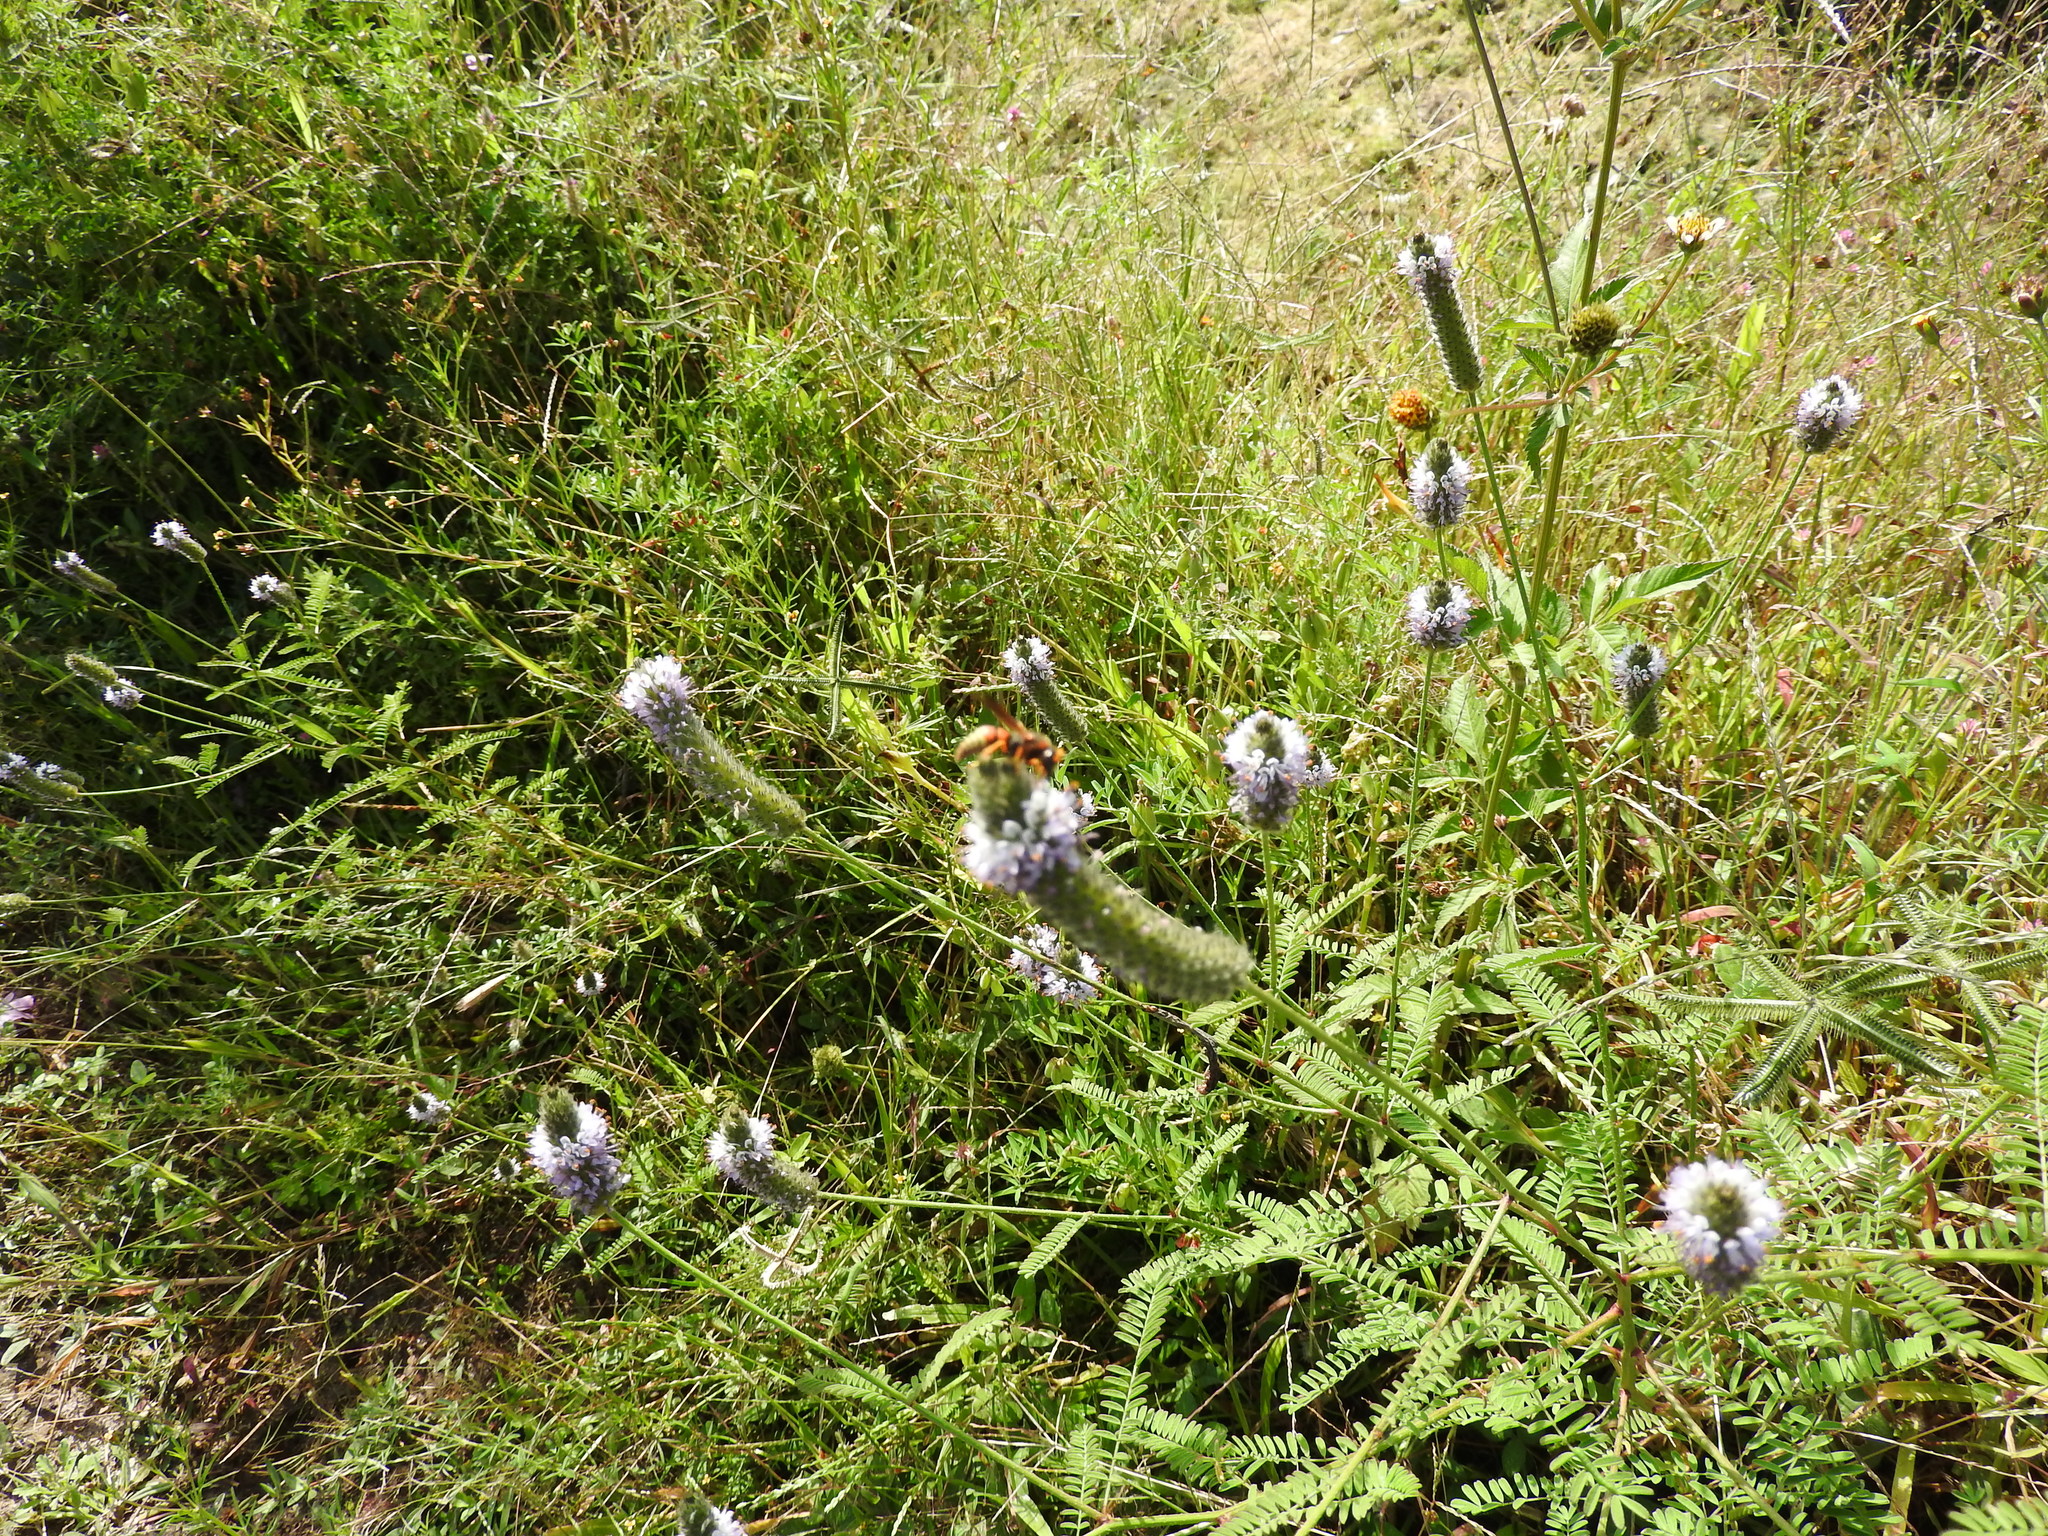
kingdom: Animalia
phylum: Arthropoda
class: Insecta
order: Hymenoptera
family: Eumenidae
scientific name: Eumenidae
